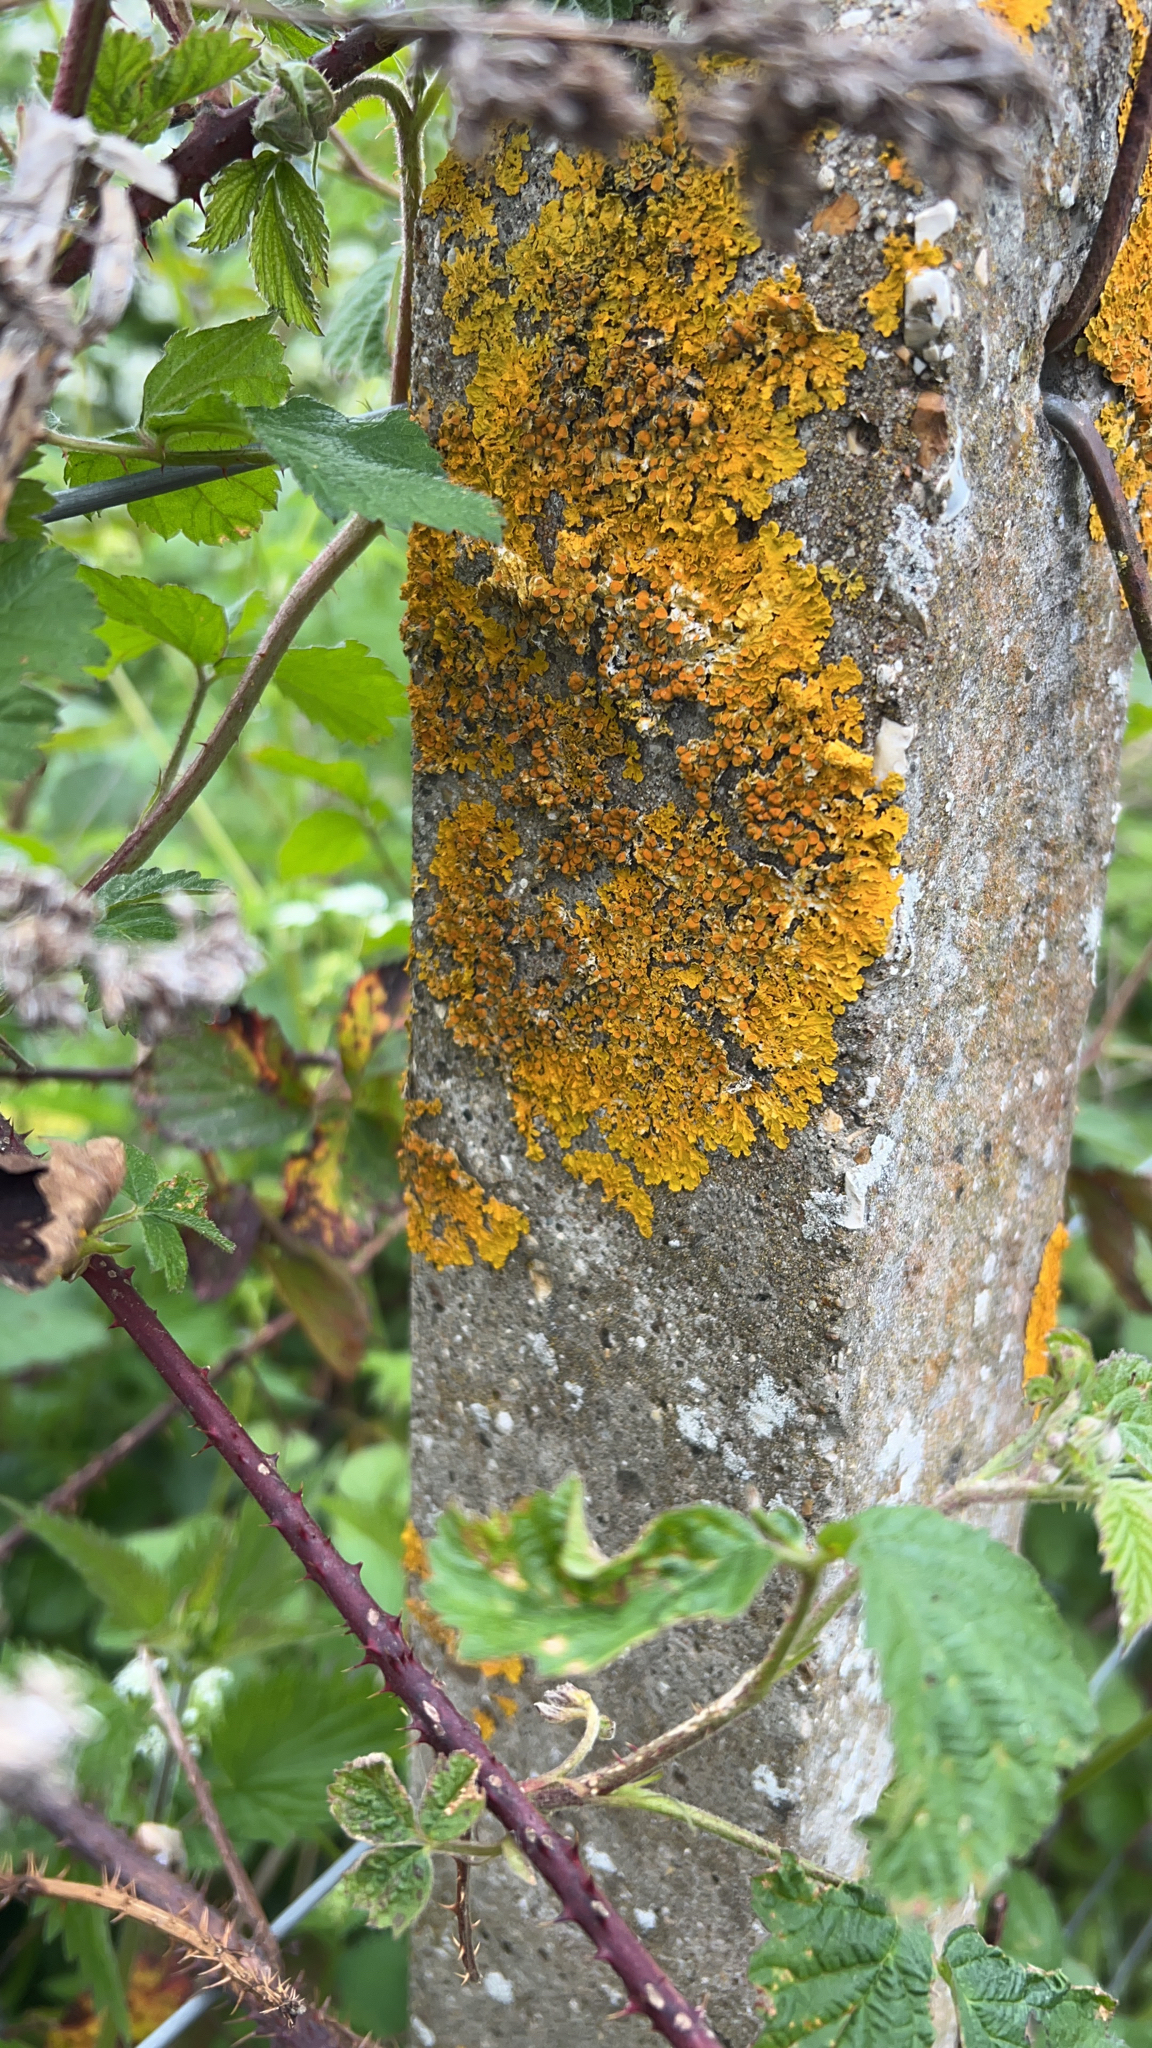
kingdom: Fungi
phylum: Ascomycota
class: Lecanoromycetes
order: Teloschistales
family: Teloschistaceae
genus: Xanthoria
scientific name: Xanthoria parietina
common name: Common orange lichen
